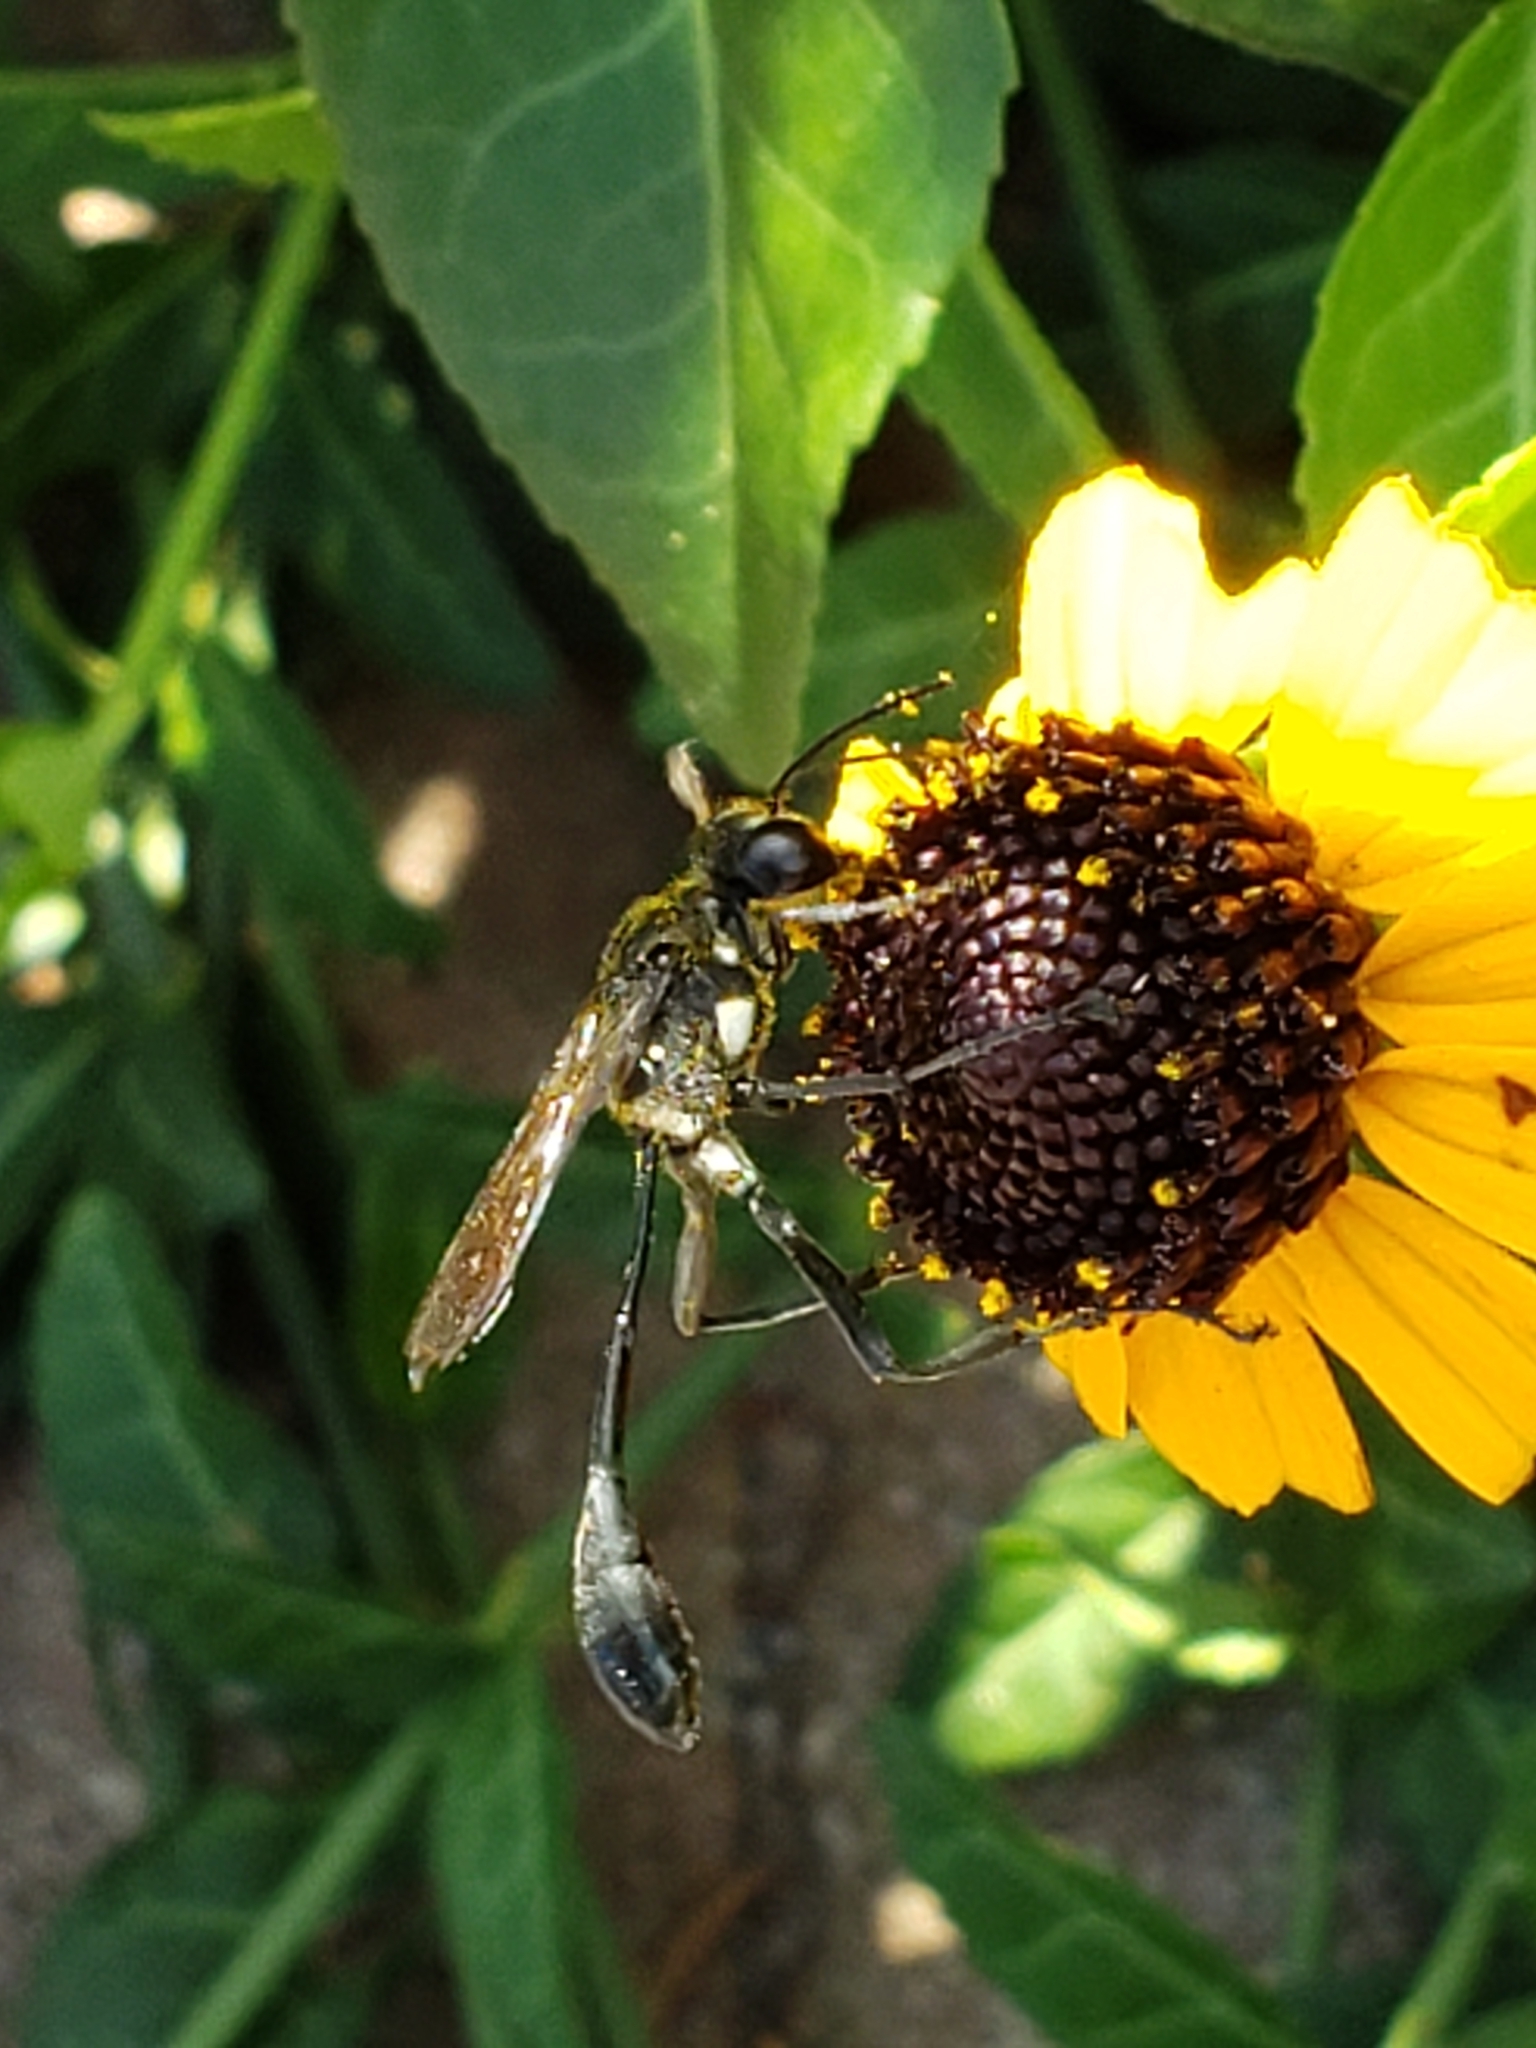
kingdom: Animalia
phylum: Arthropoda
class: Insecta
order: Hymenoptera
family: Sphecidae
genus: Eremnophila
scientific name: Eremnophila aureonotata
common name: Gold-marked thread-waisted wasp
